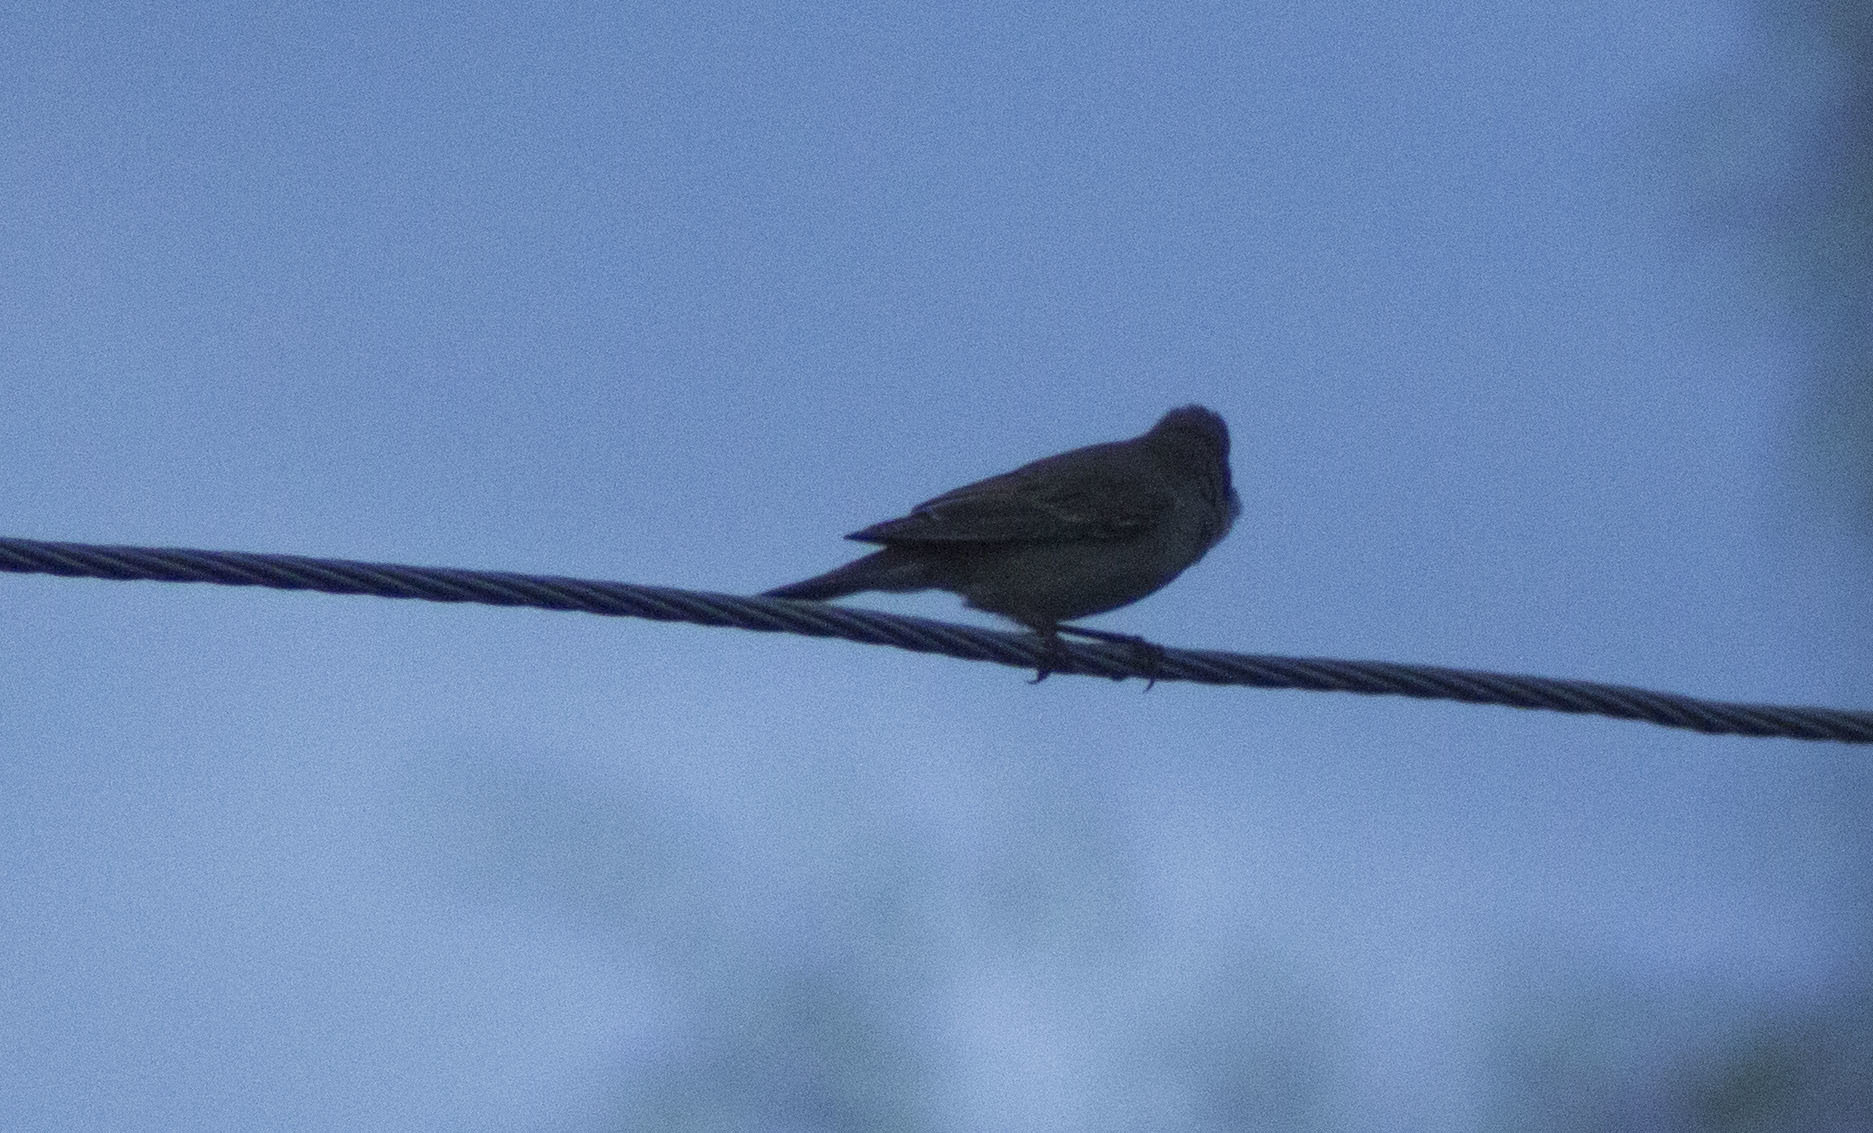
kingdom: Animalia
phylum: Chordata
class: Aves
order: Passeriformes
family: Sylviidae
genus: Sylvia
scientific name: Sylvia communis
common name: Common whitethroat
